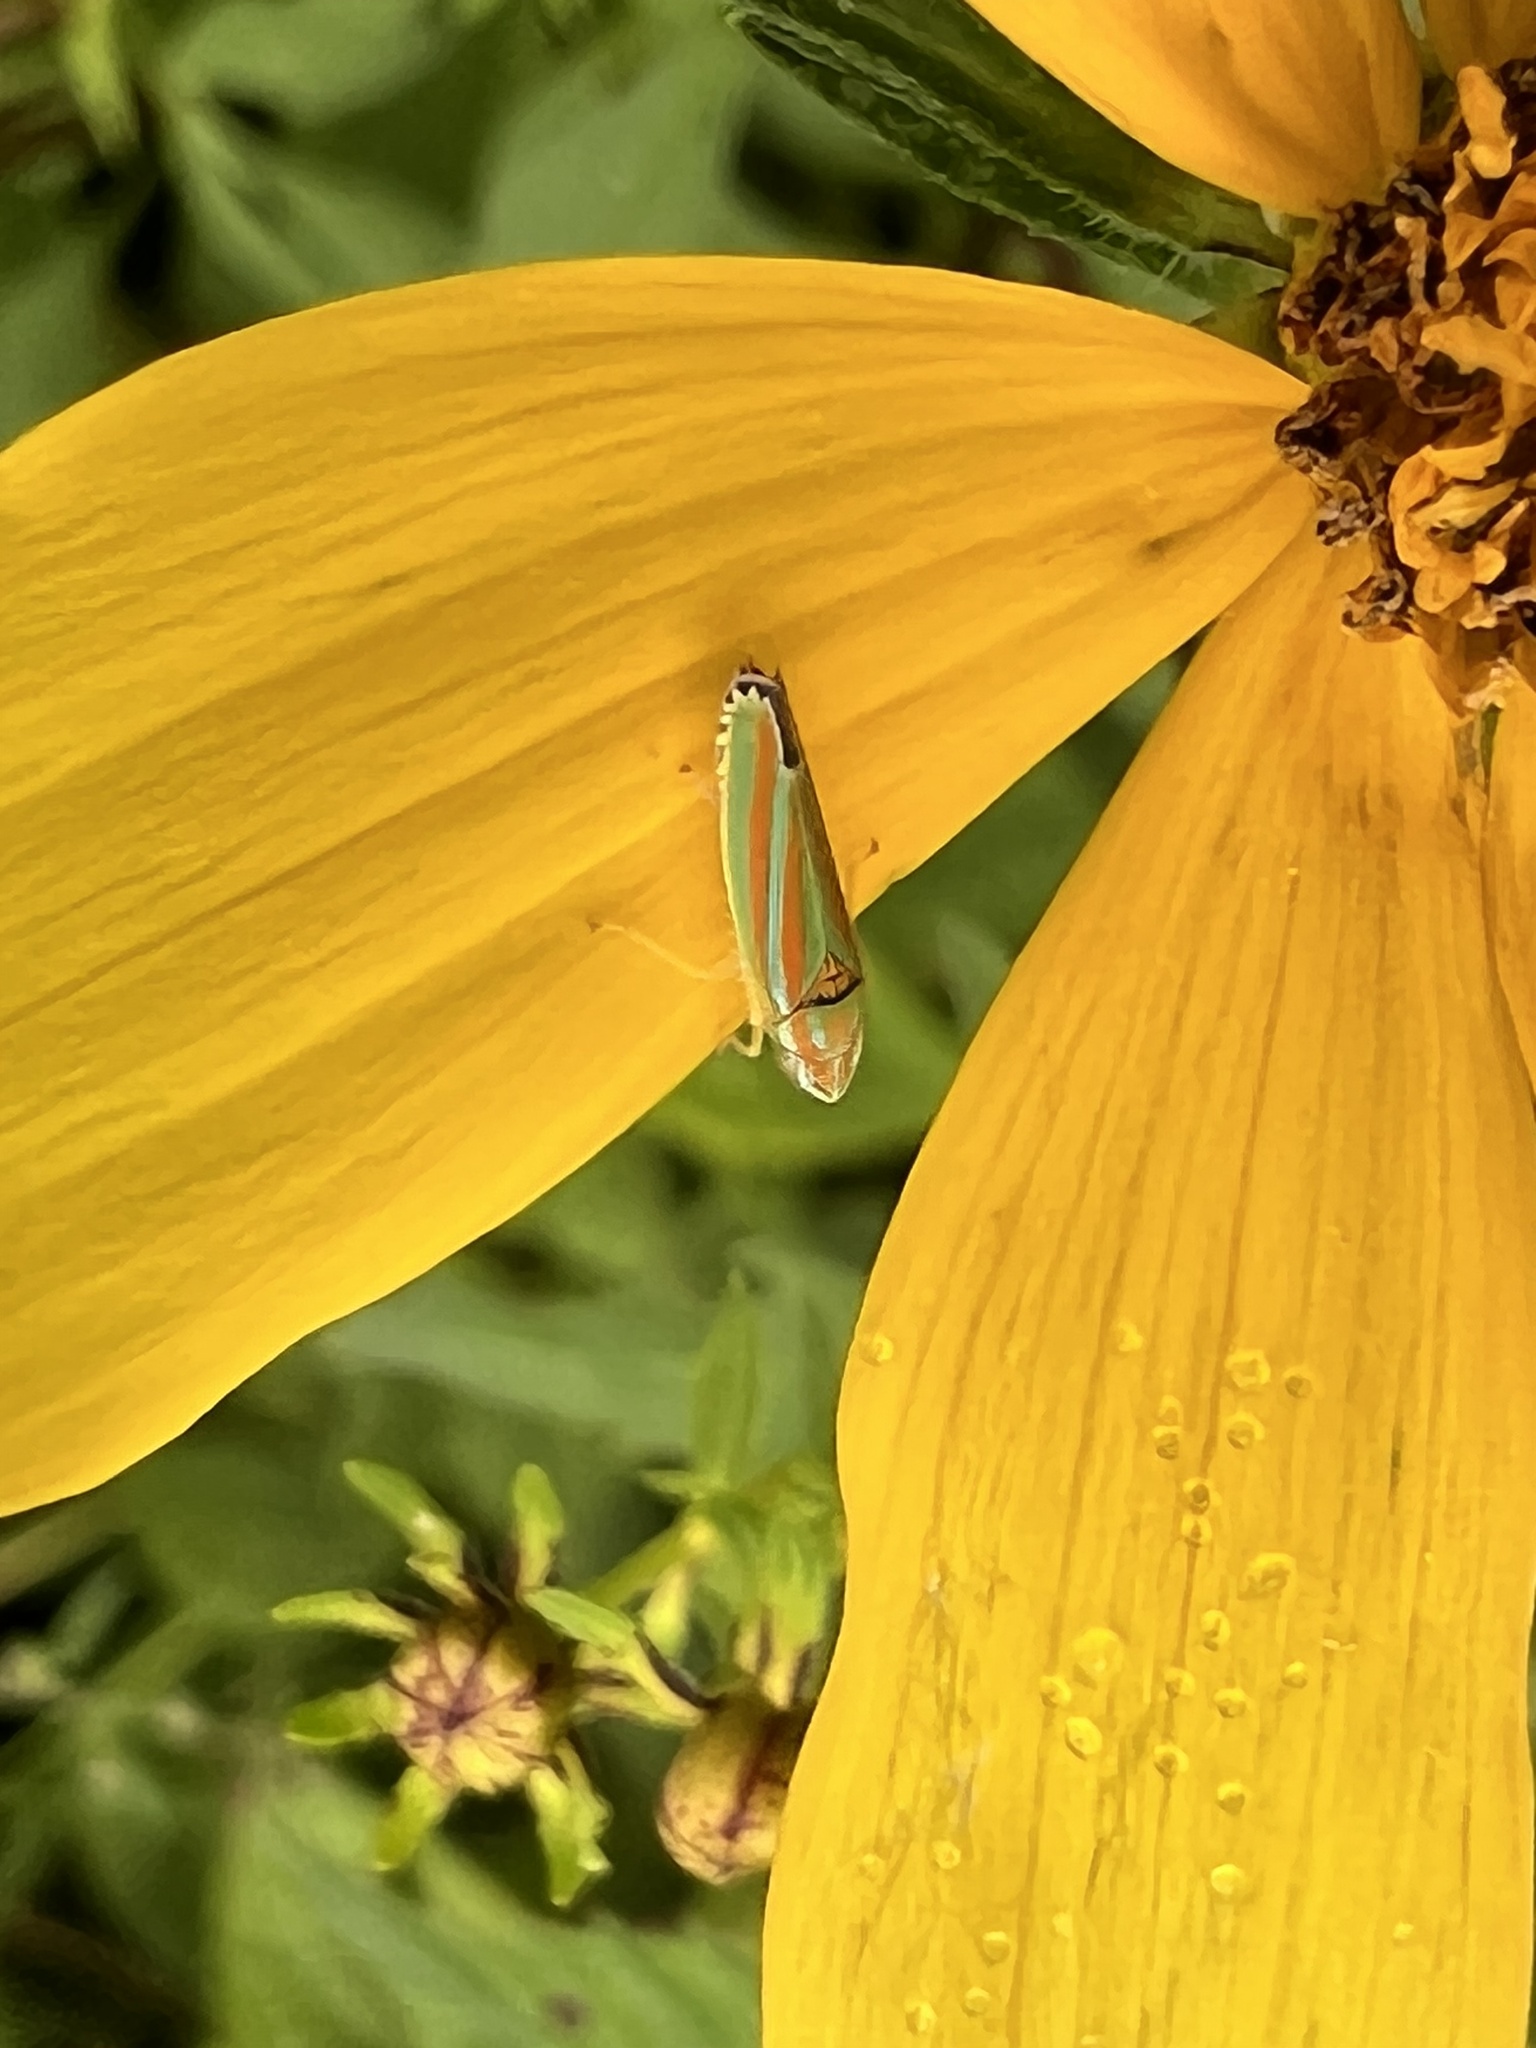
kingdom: Animalia
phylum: Arthropoda
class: Insecta
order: Hemiptera
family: Cicadellidae
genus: Graphocephala
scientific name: Graphocephala versuta
